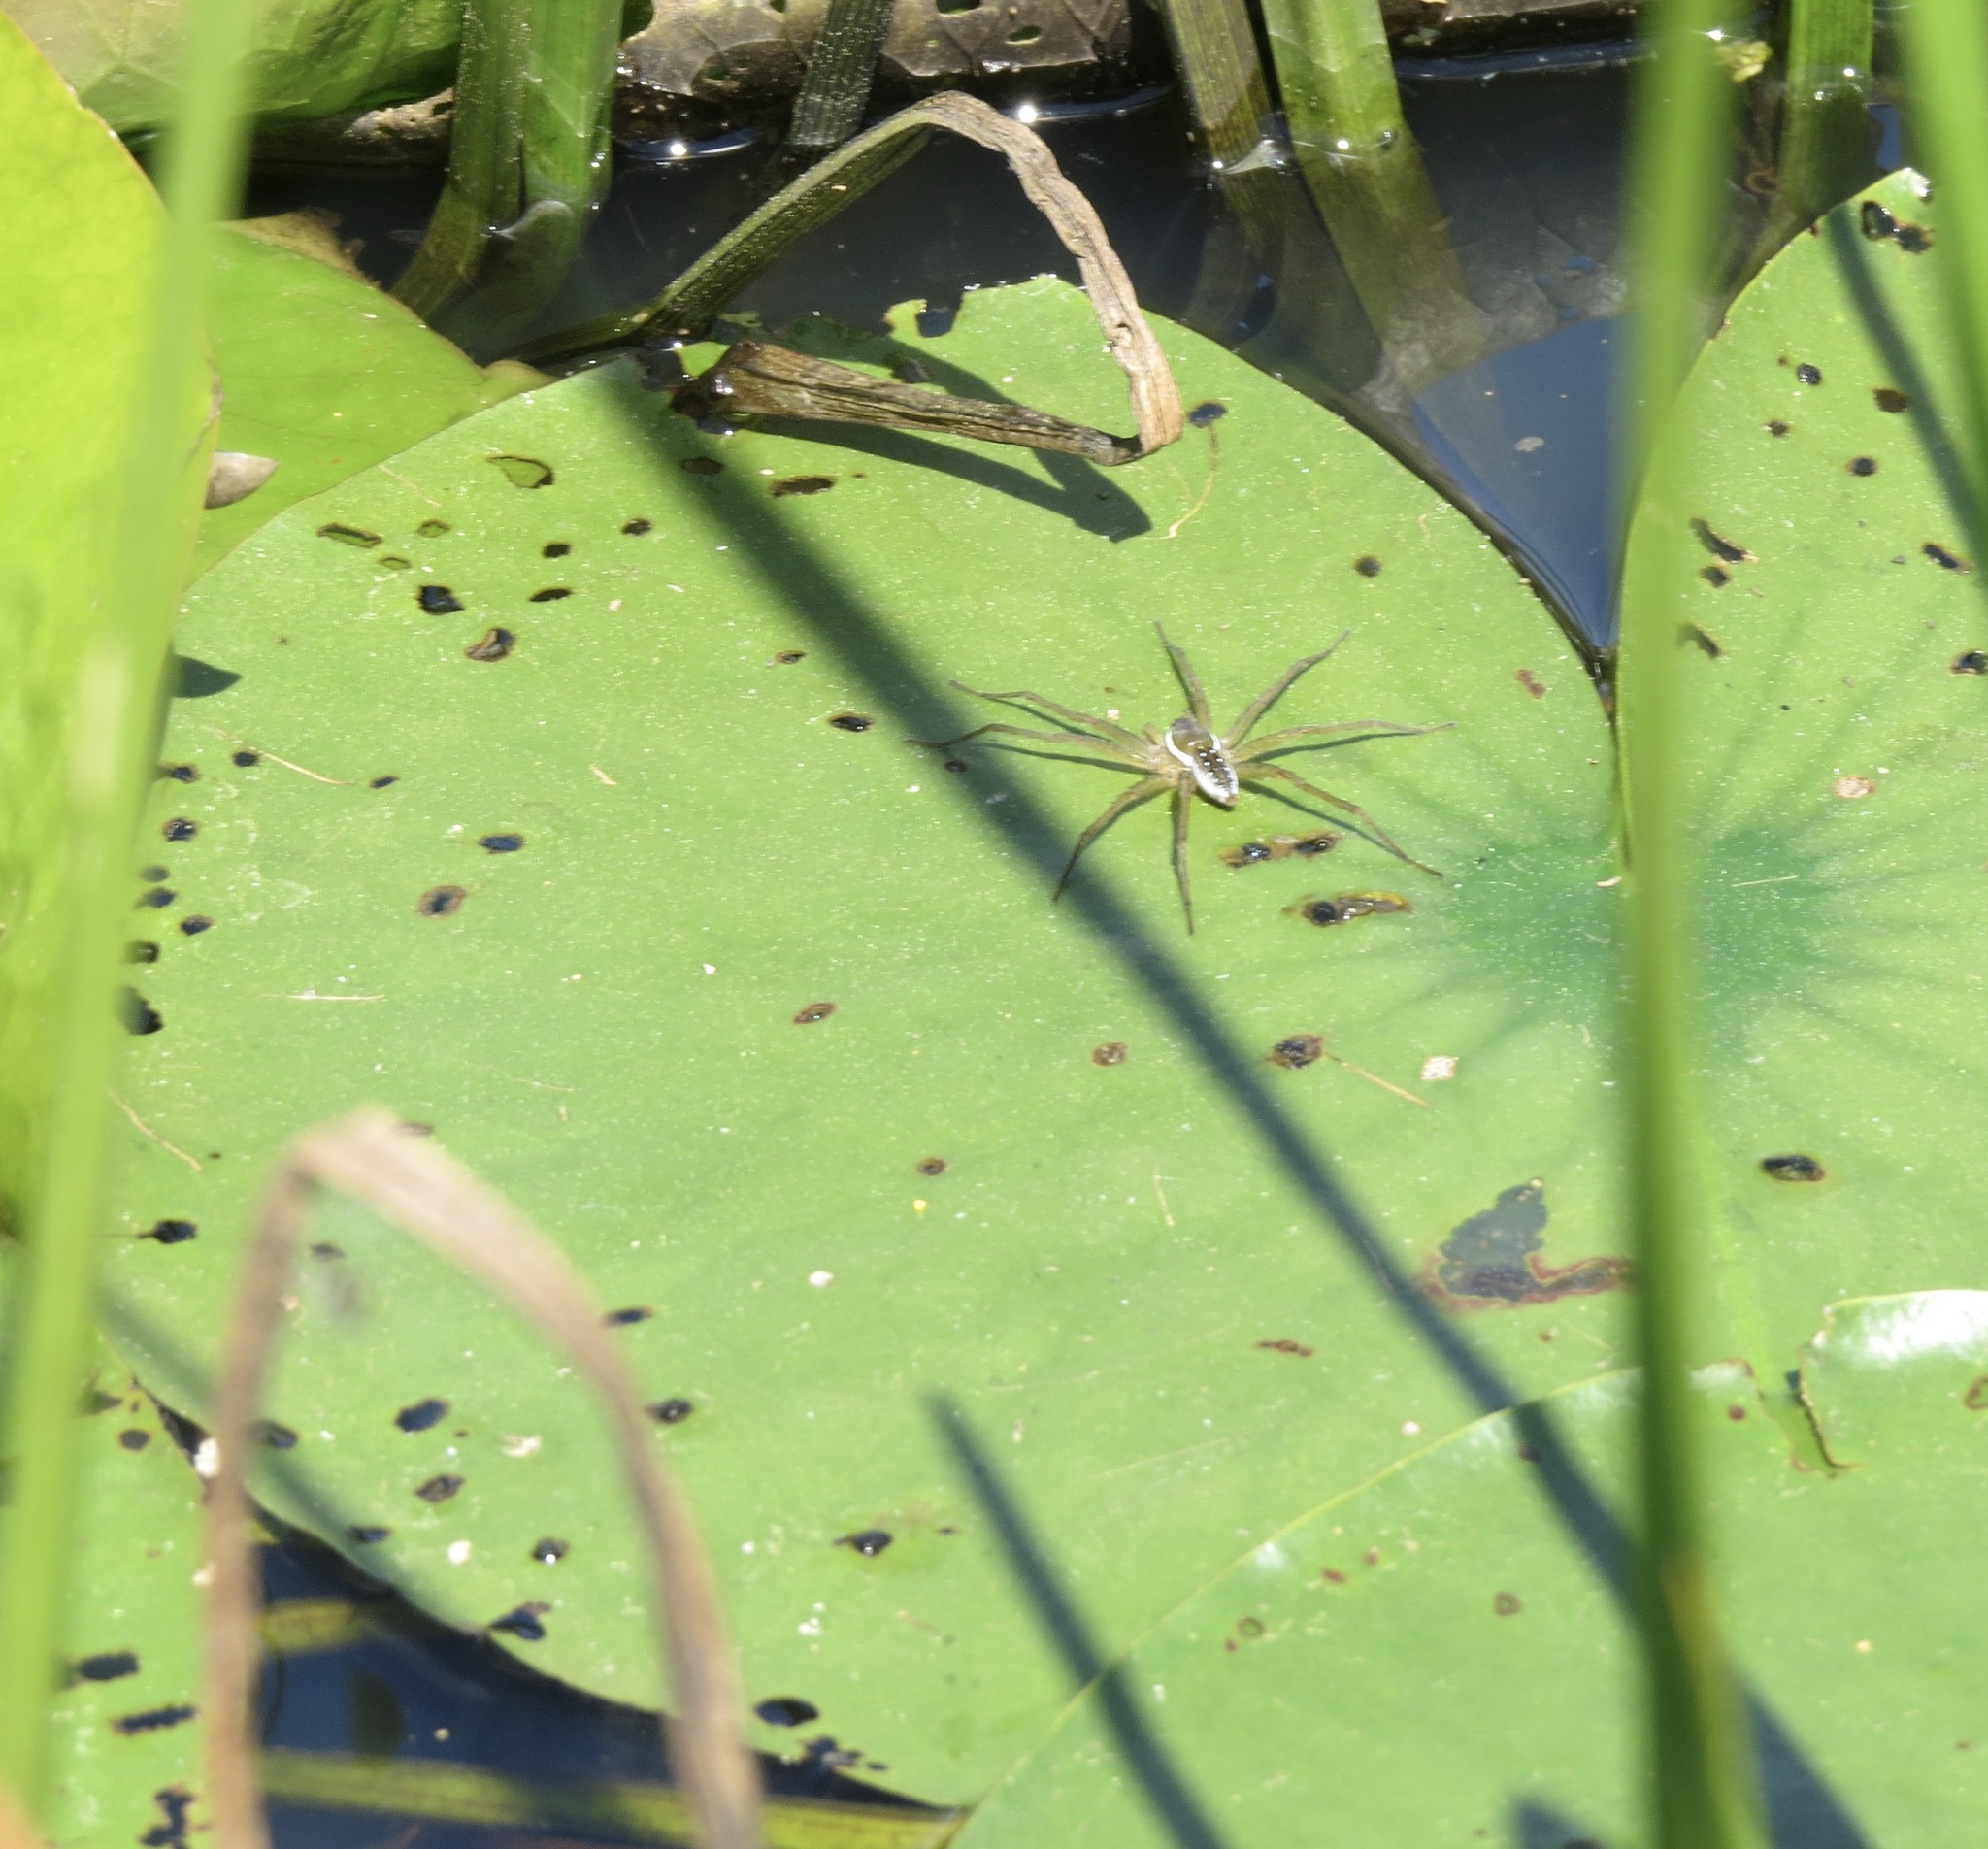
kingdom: Animalia
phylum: Arthropoda
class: Arachnida
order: Araneae
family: Pisauridae
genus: Dolomedes
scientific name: Dolomedes triton
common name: Six-spotted fishing spider
